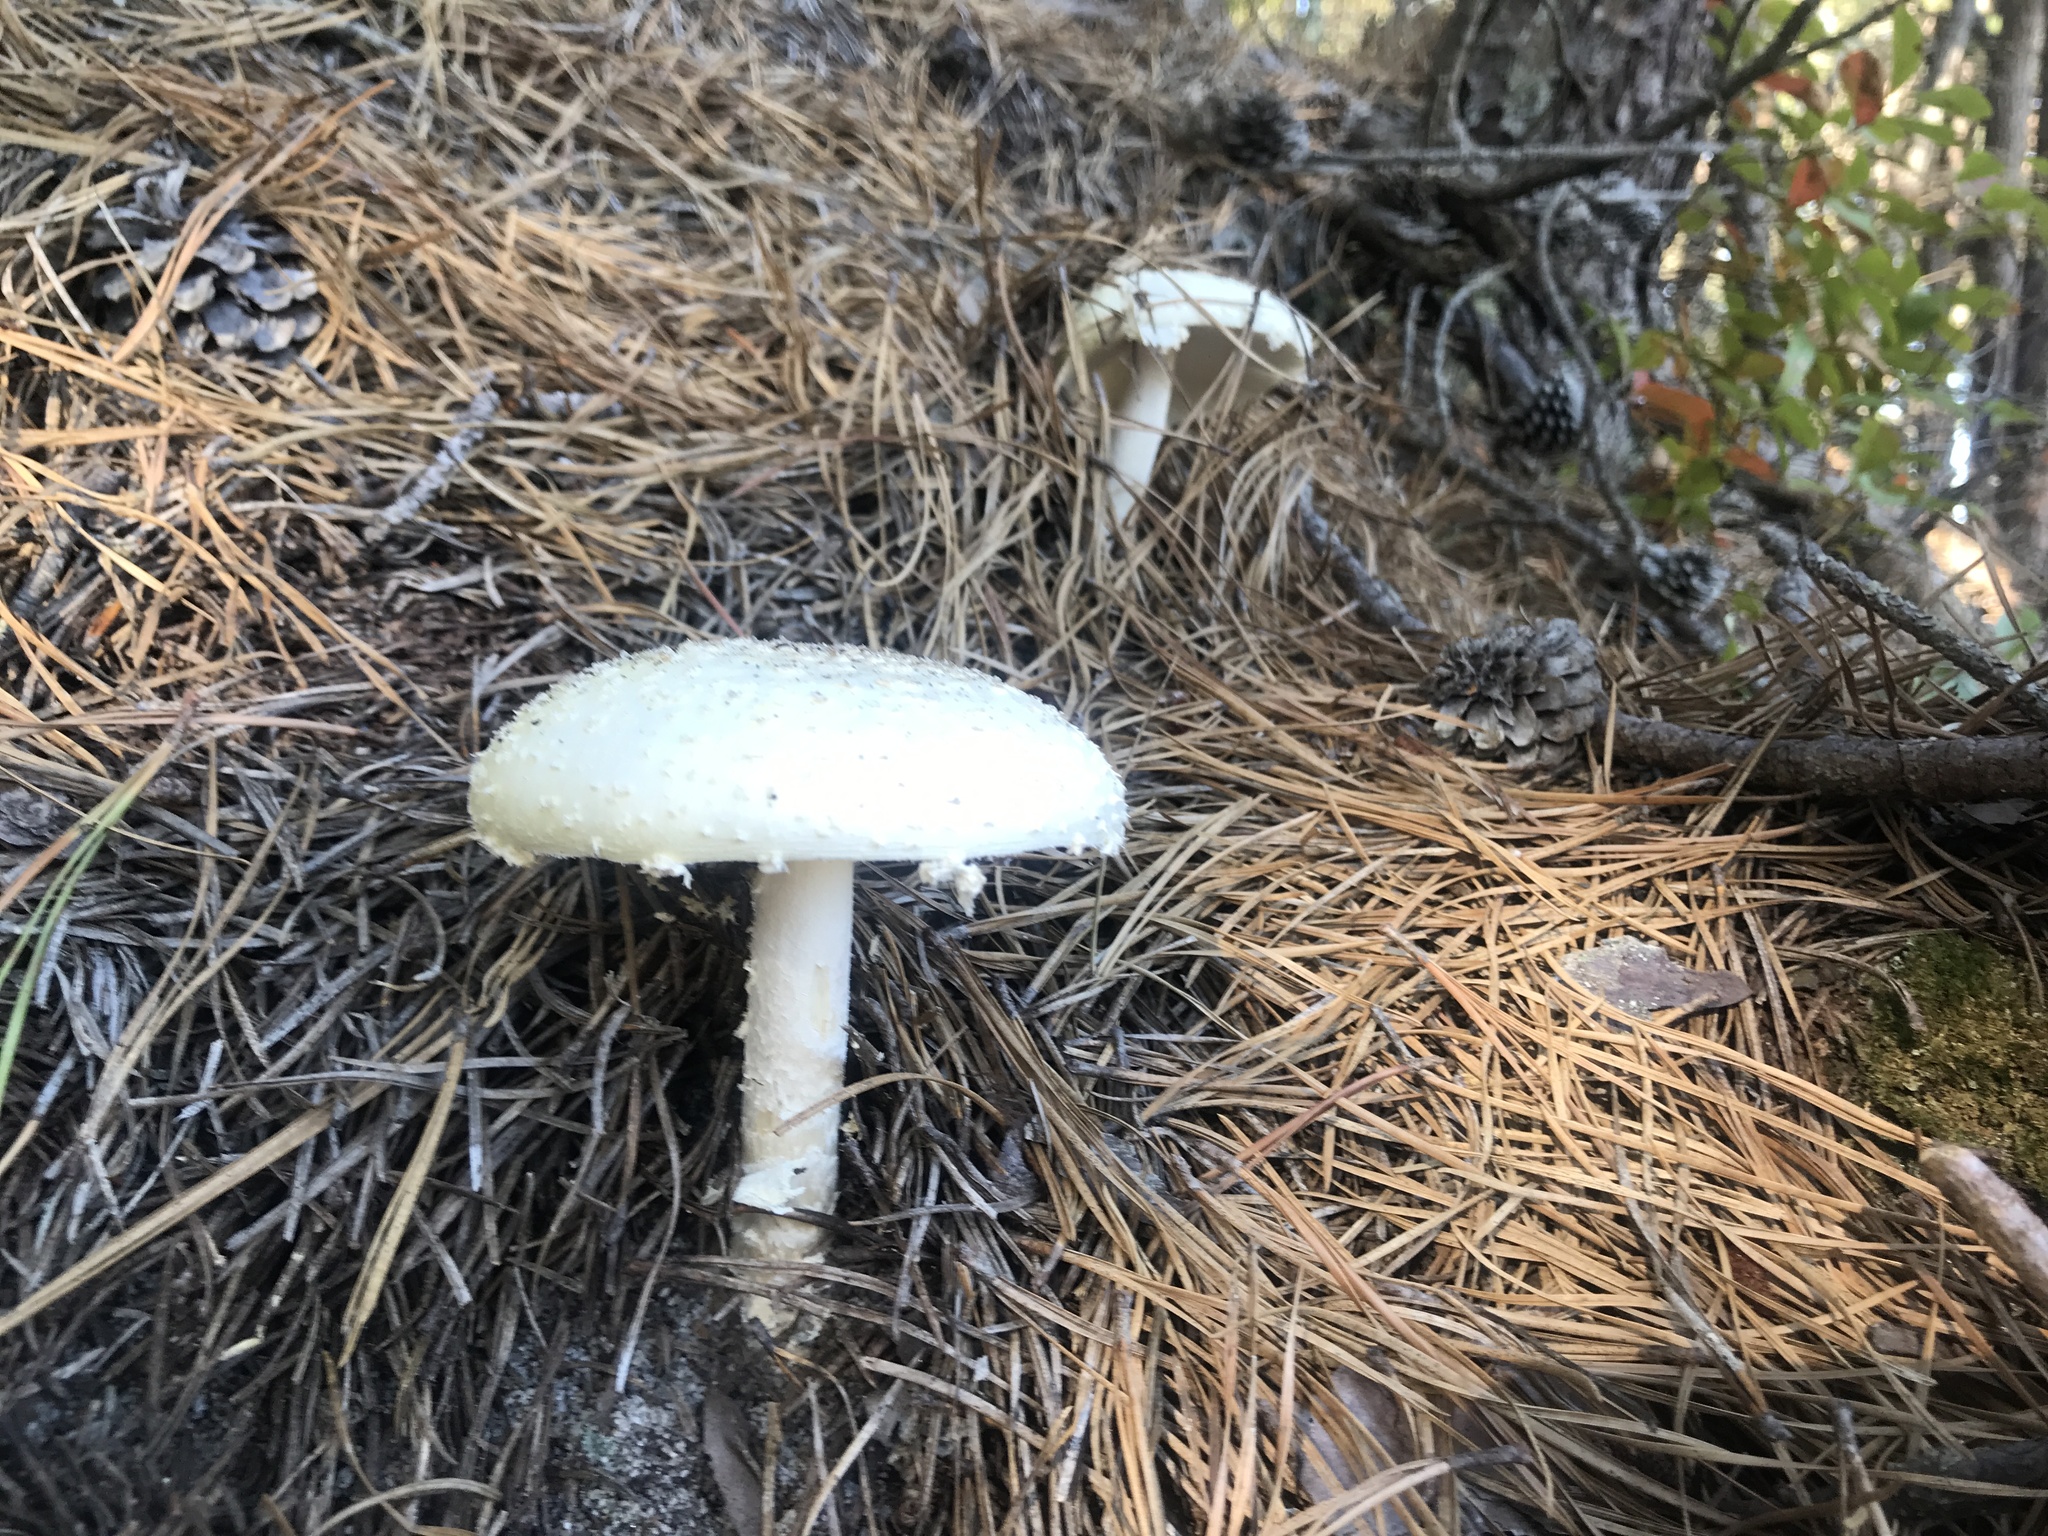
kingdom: Fungi
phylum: Basidiomycota
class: Agaricomycetes
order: Agaricales
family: Amanitaceae
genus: Amanita
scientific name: Amanita muscaria
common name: Fly agaric
